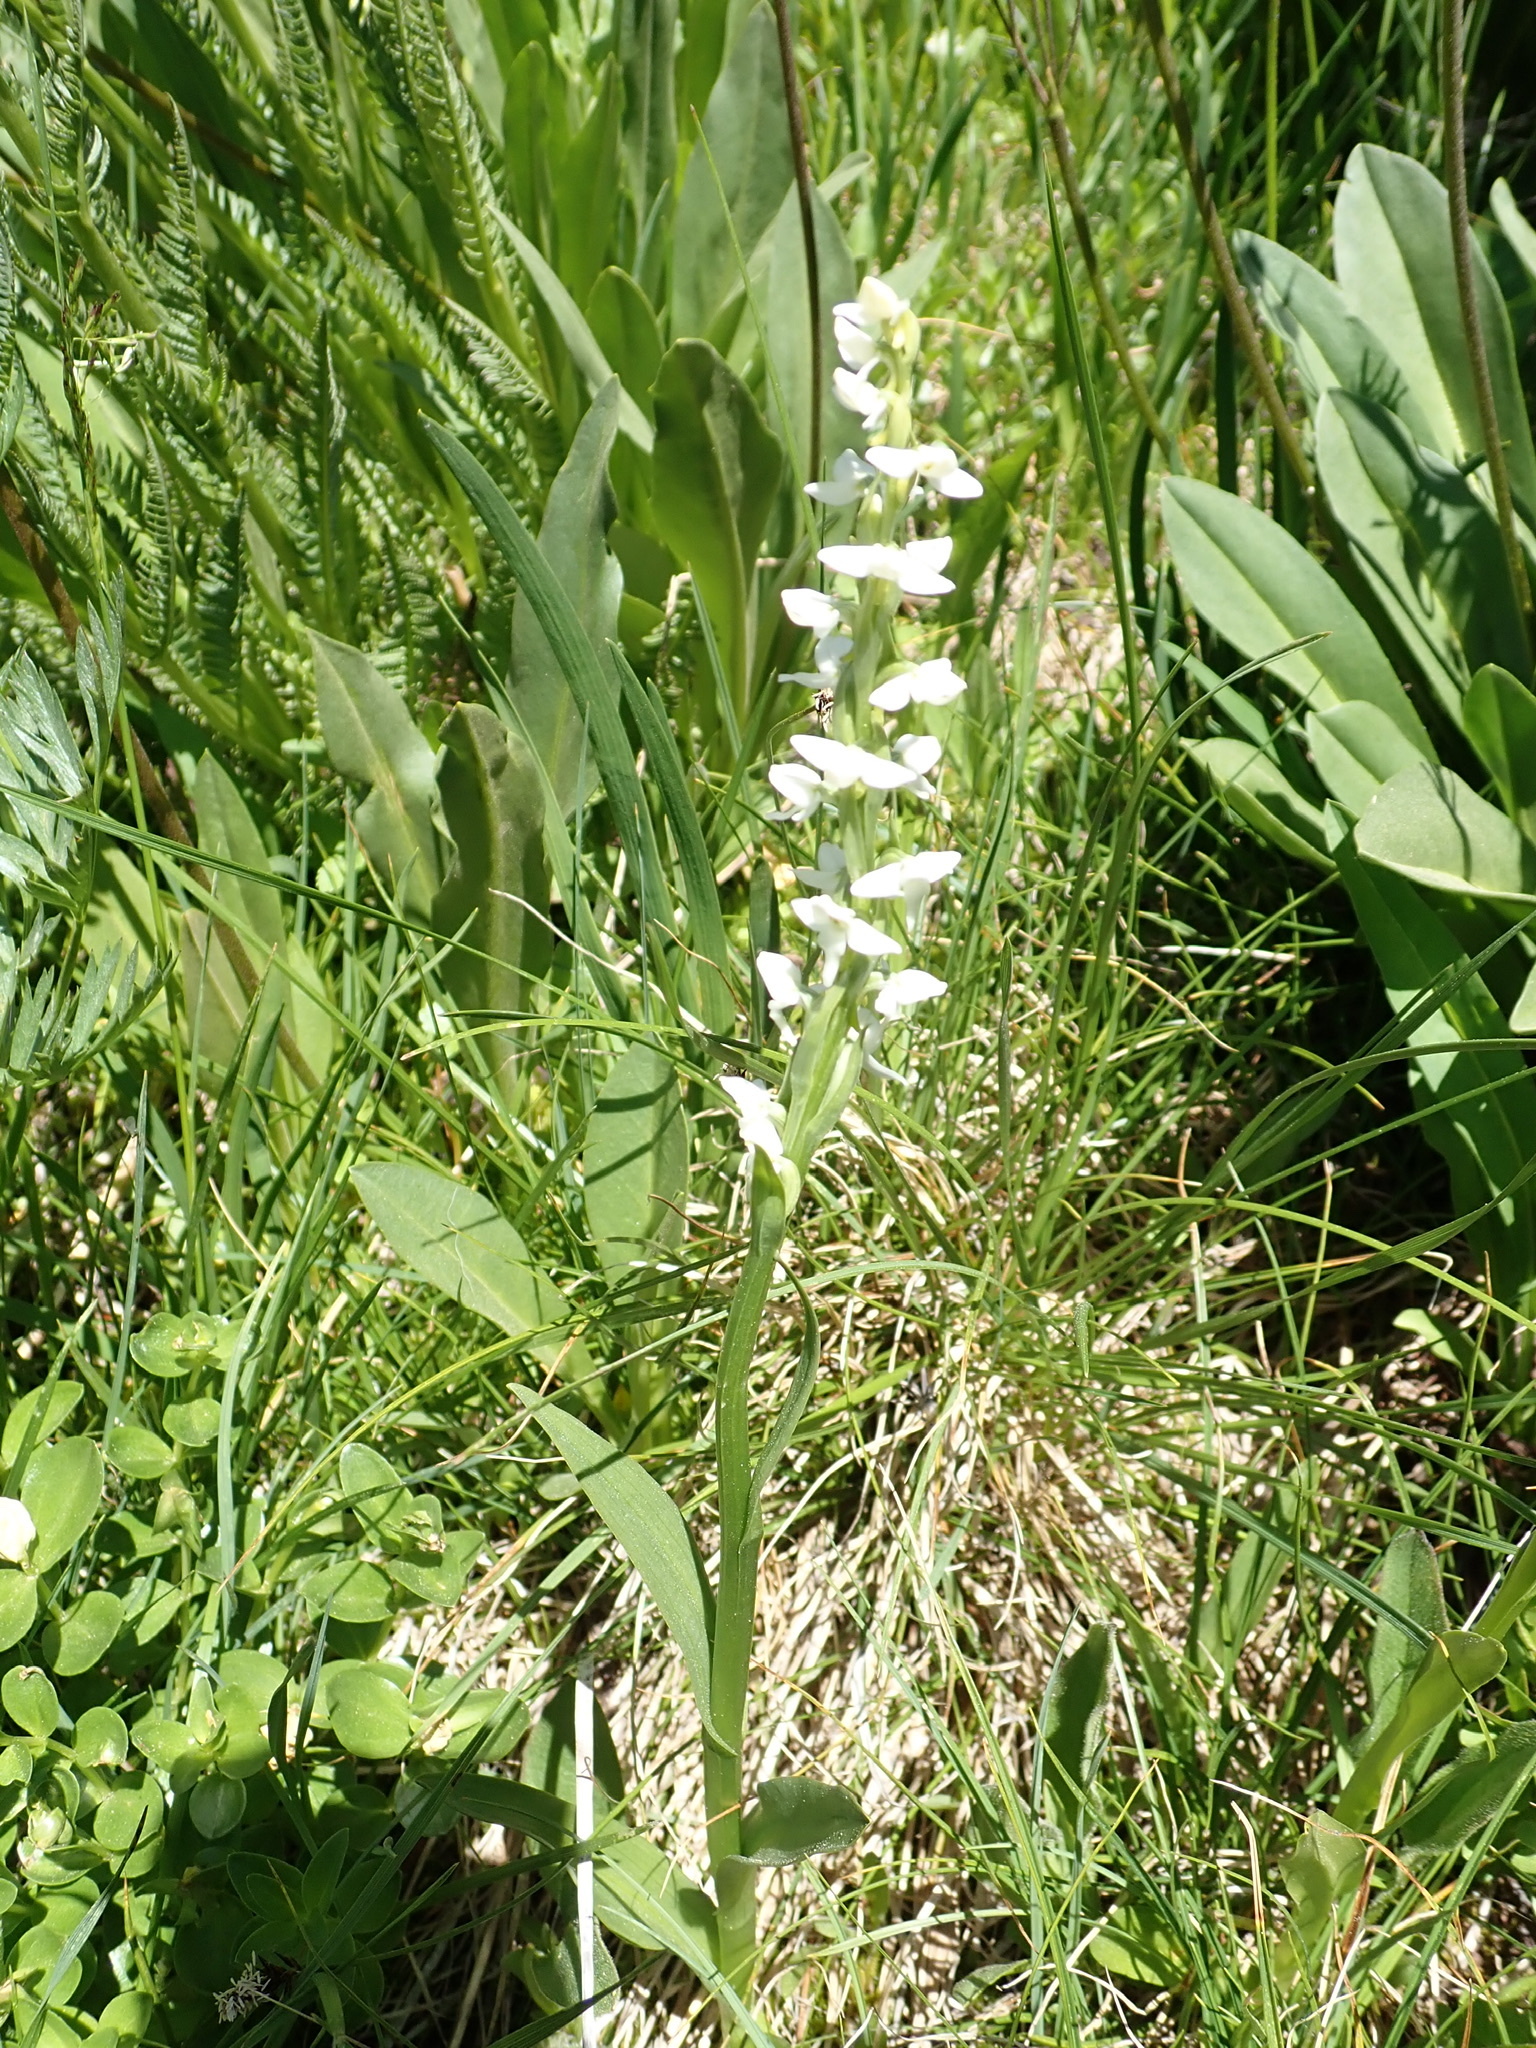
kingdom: Plantae
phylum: Tracheophyta
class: Liliopsida
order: Asparagales
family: Orchidaceae
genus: Platanthera
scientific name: Platanthera dilatata
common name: Bog candles
